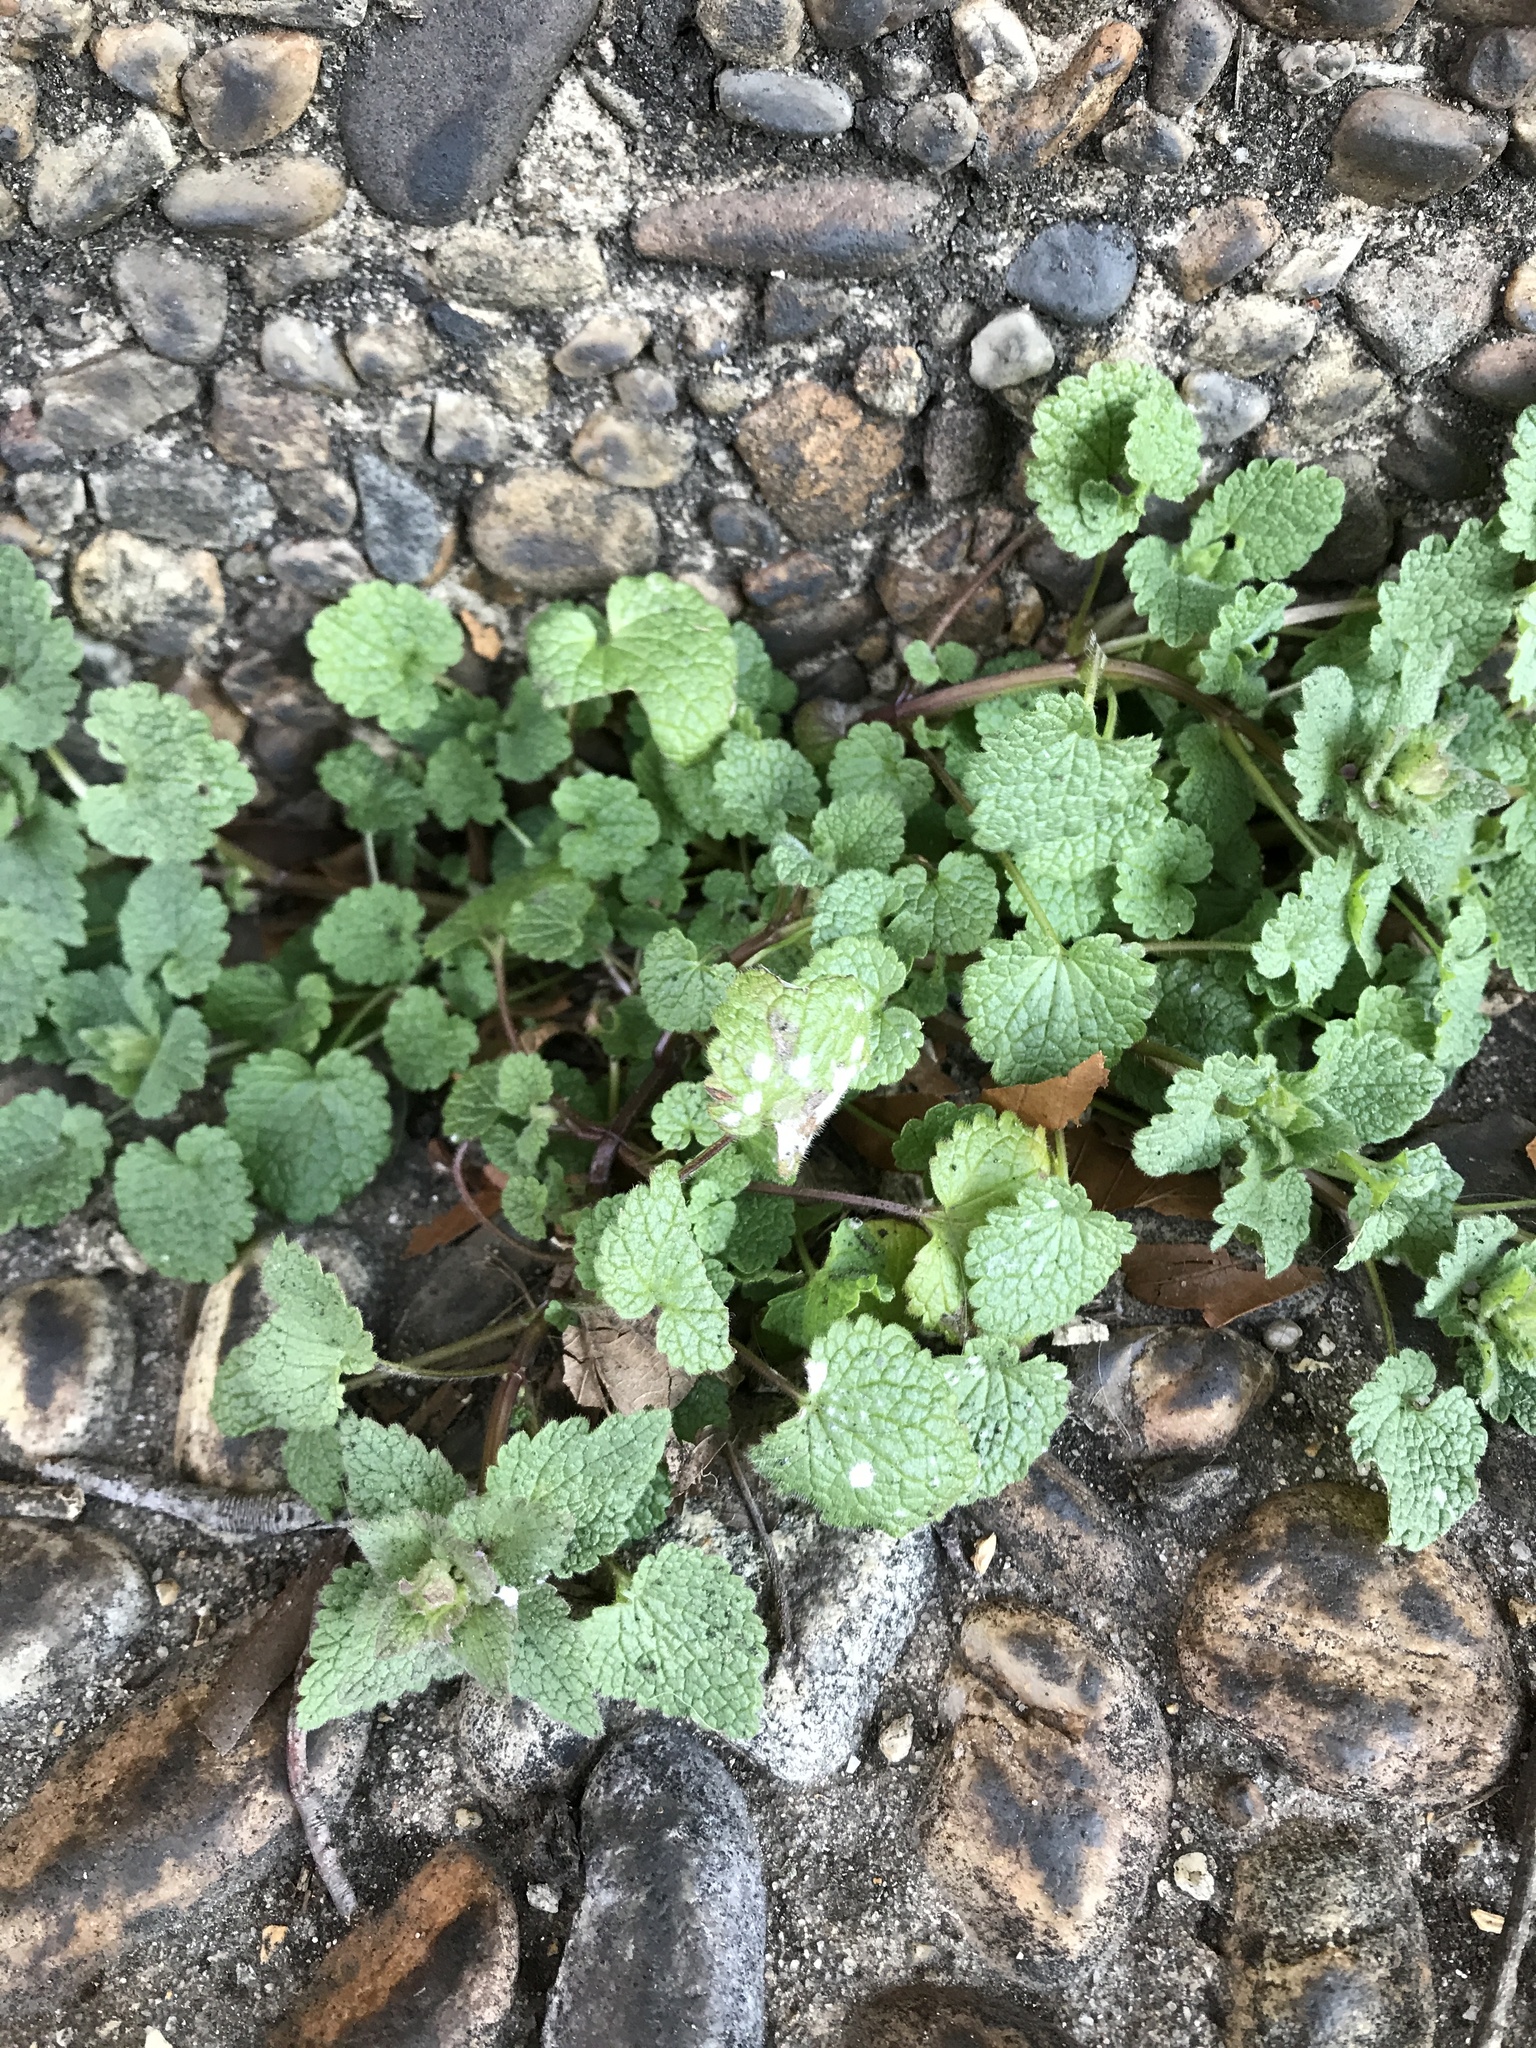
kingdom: Plantae
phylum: Tracheophyta
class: Magnoliopsida
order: Lamiales
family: Lamiaceae
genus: Lamium
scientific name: Lamium purpureum
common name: Red dead-nettle
